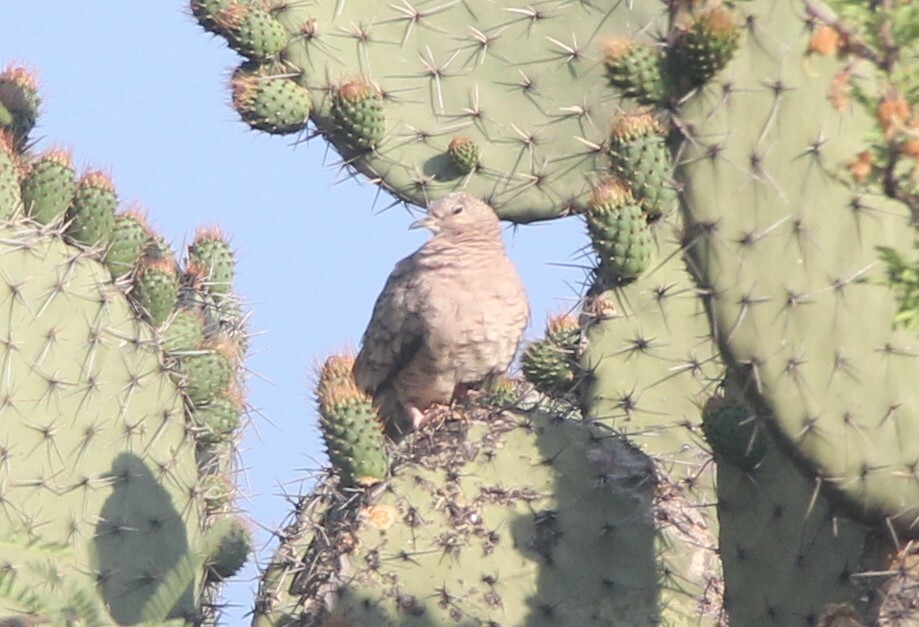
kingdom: Animalia
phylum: Chordata
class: Aves
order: Columbiformes
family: Columbidae
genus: Columbina
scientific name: Columbina inca
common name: Inca dove
